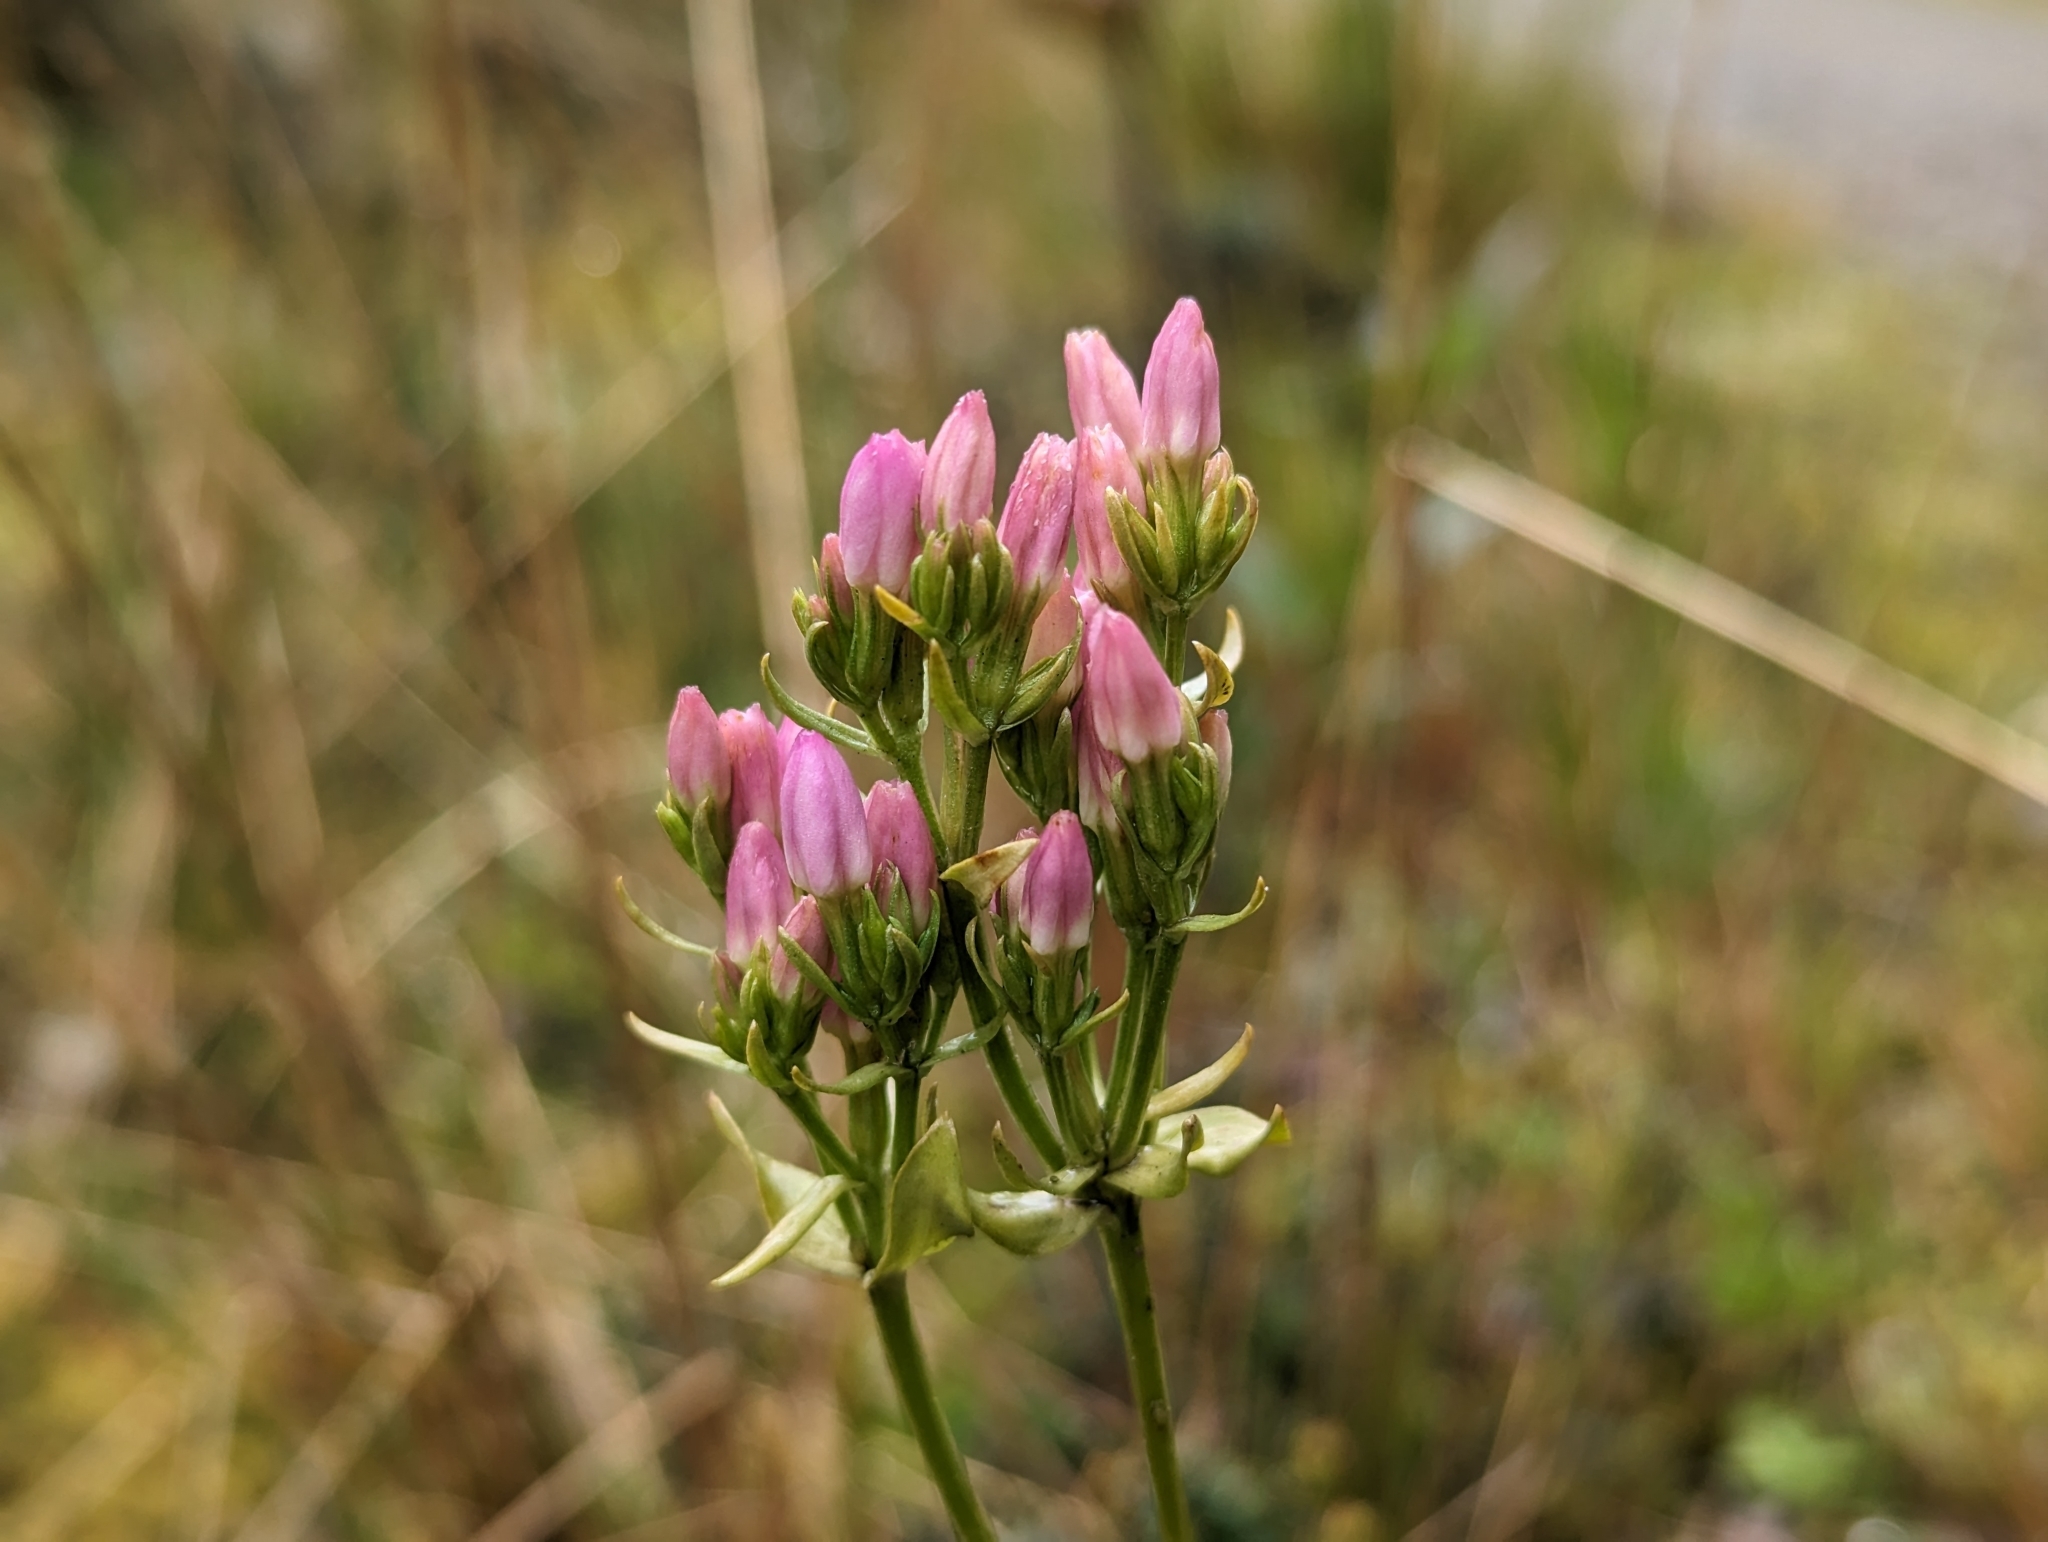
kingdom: Plantae
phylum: Tracheophyta
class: Magnoliopsida
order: Gentianales
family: Gentianaceae
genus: Centaurium
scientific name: Centaurium erythraea
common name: Common centaury
